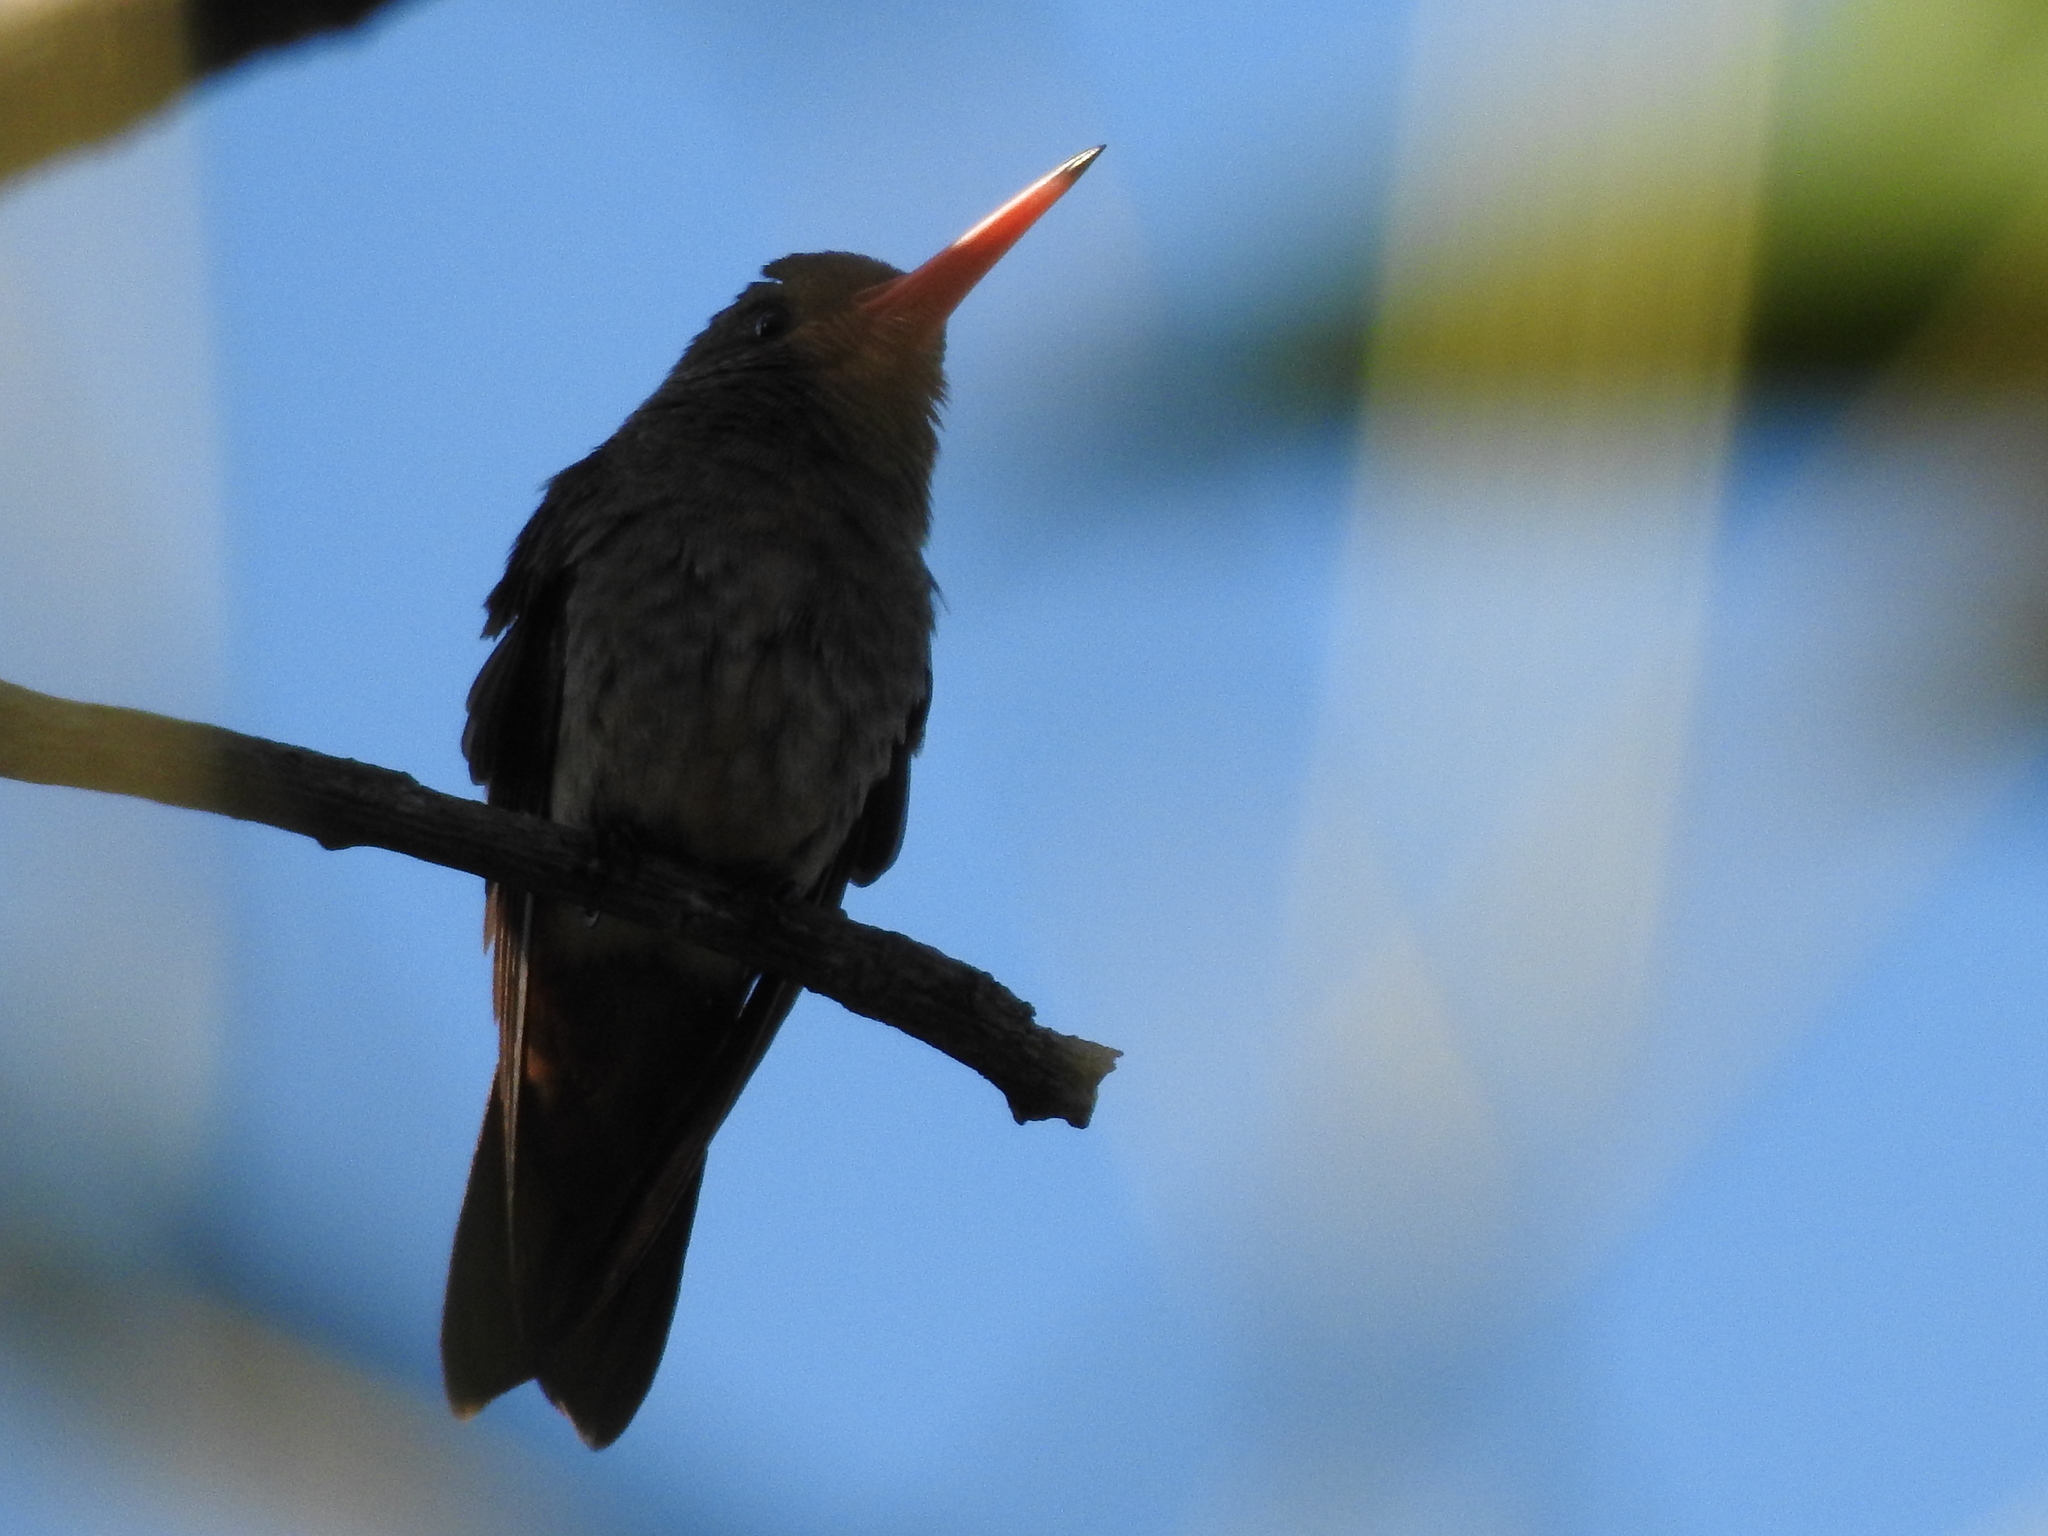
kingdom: Animalia
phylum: Chordata
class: Aves
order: Apodiformes
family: Trochilidae
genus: Hylocharis
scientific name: Hylocharis chrysura
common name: Gilded sapphire
